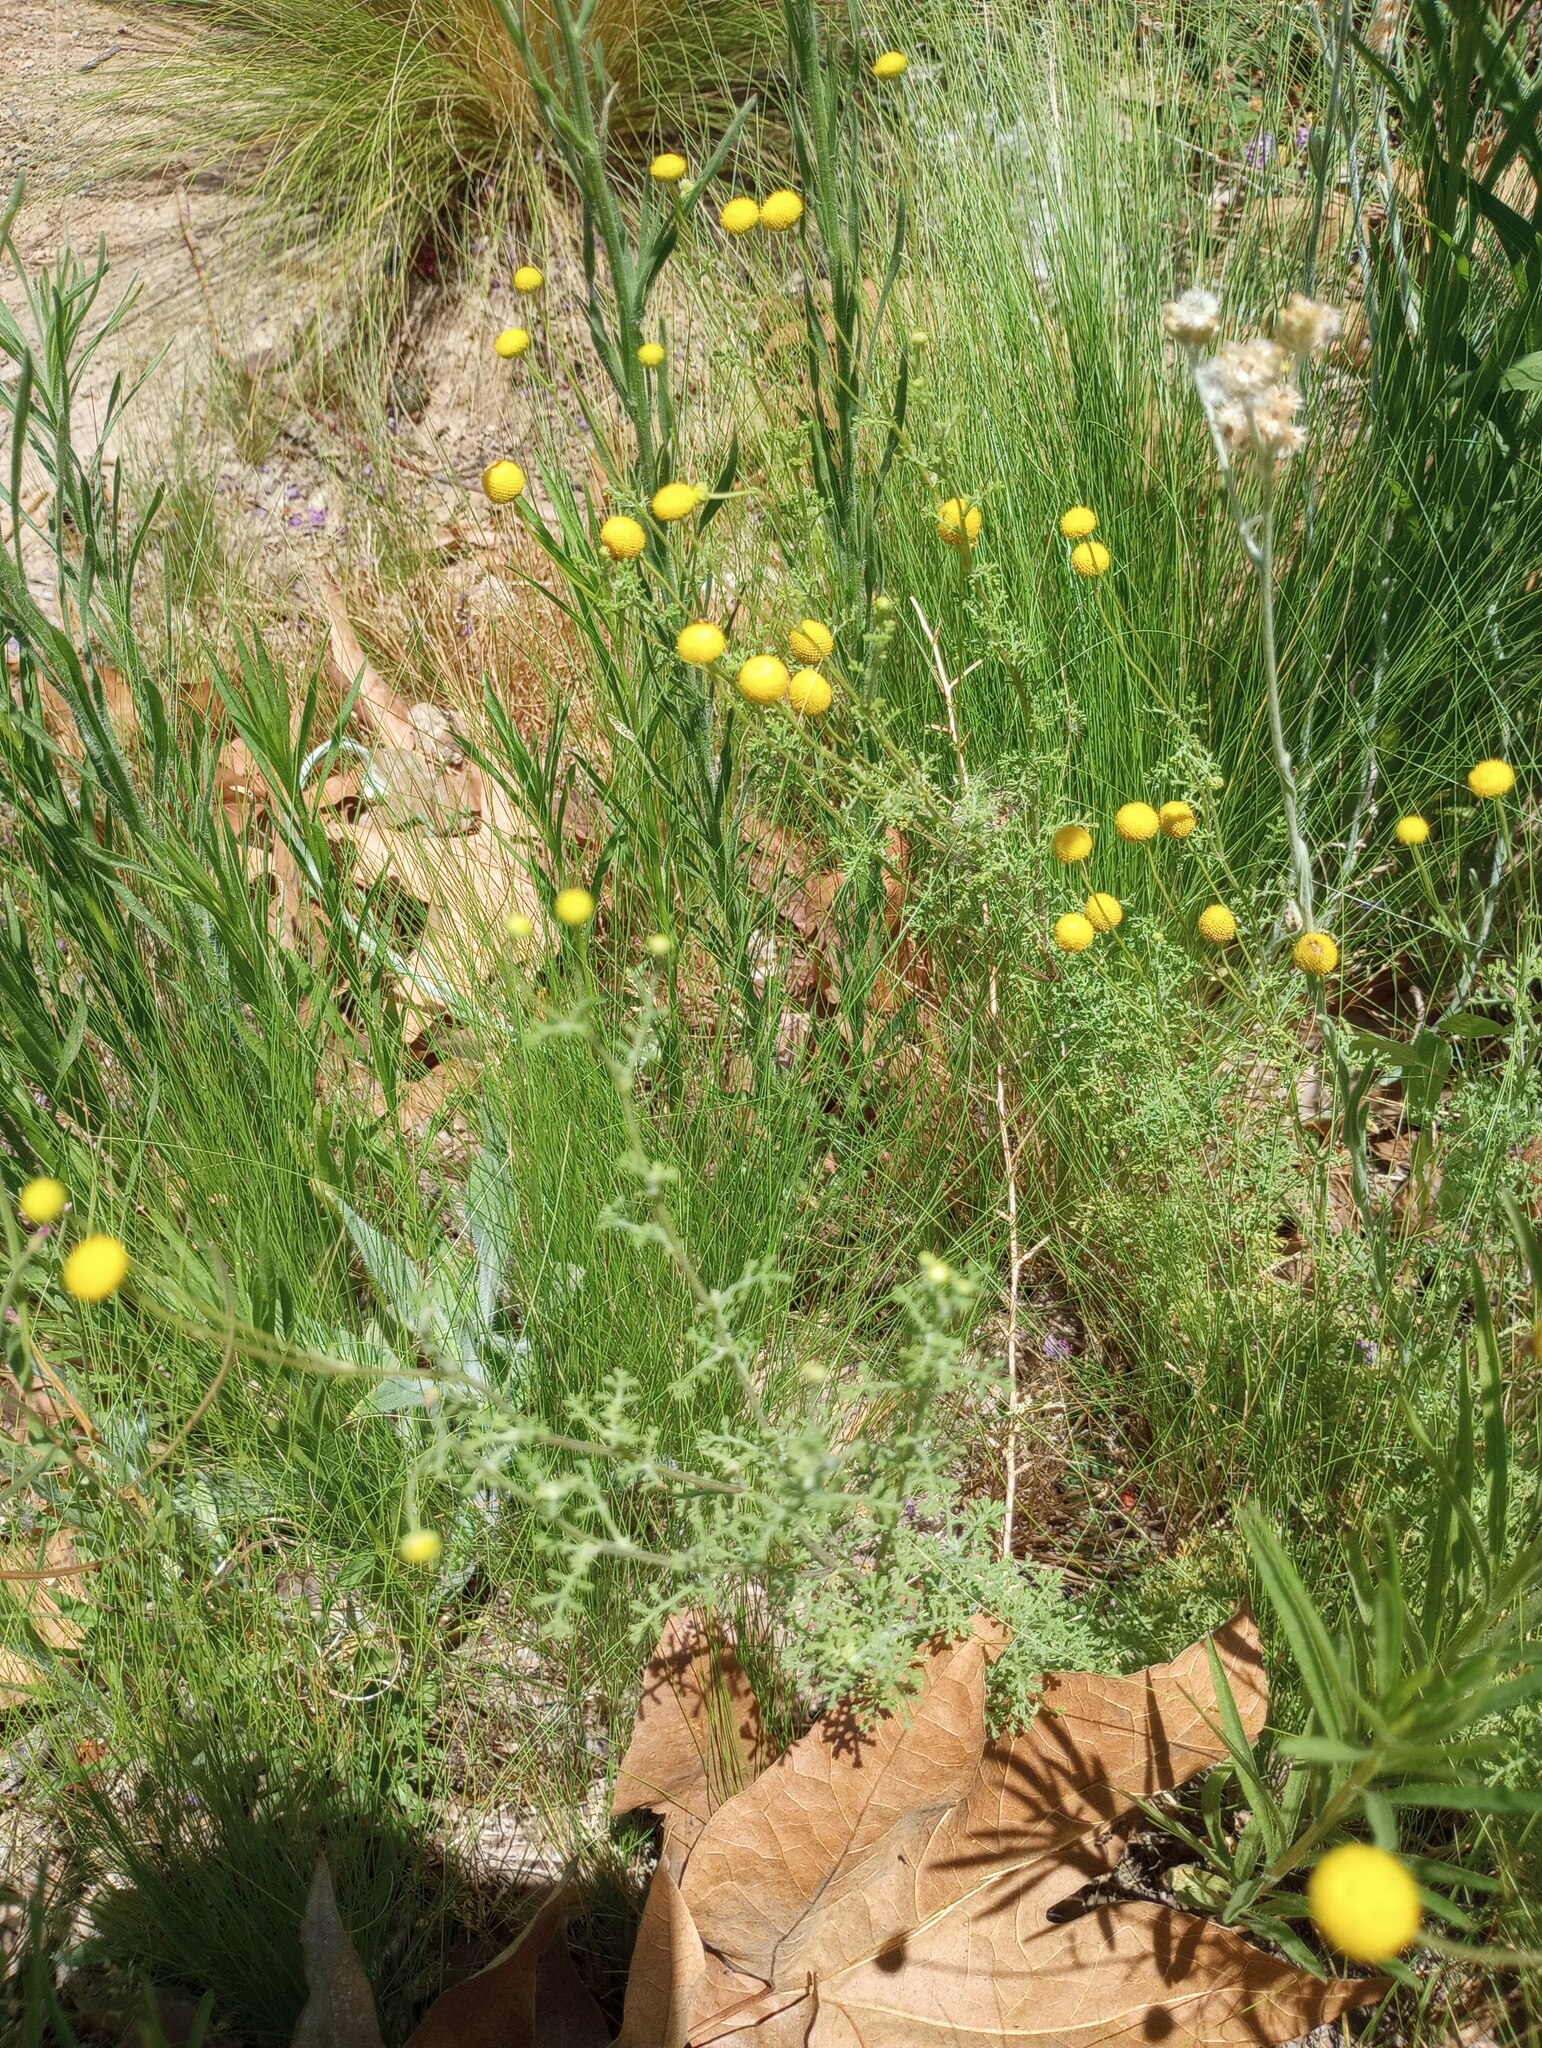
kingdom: Plantae
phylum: Tracheophyta
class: Magnoliopsida
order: Asterales
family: Asteraceae
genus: Oncosiphon
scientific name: Oncosiphon pilulifer
